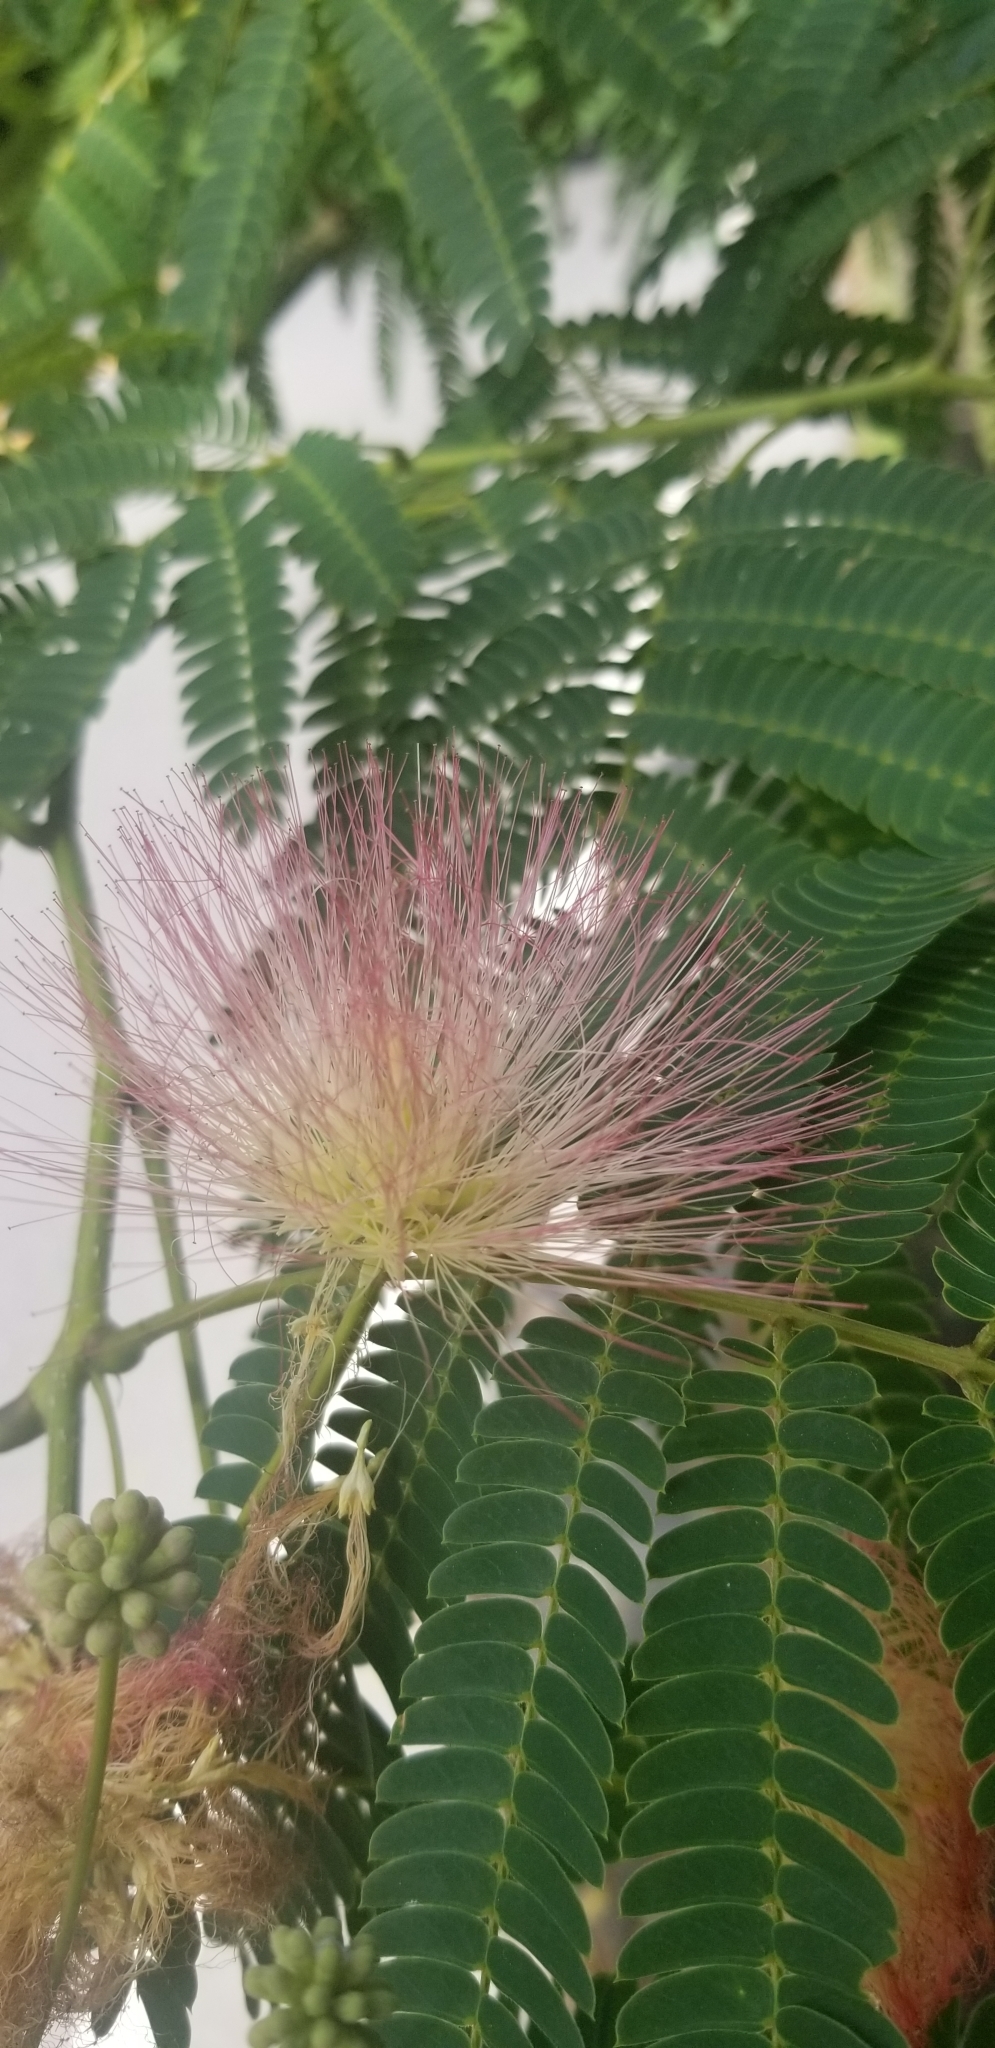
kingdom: Plantae
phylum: Tracheophyta
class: Magnoliopsida
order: Fabales
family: Fabaceae
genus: Albizia
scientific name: Albizia julibrissin
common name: Silktree
